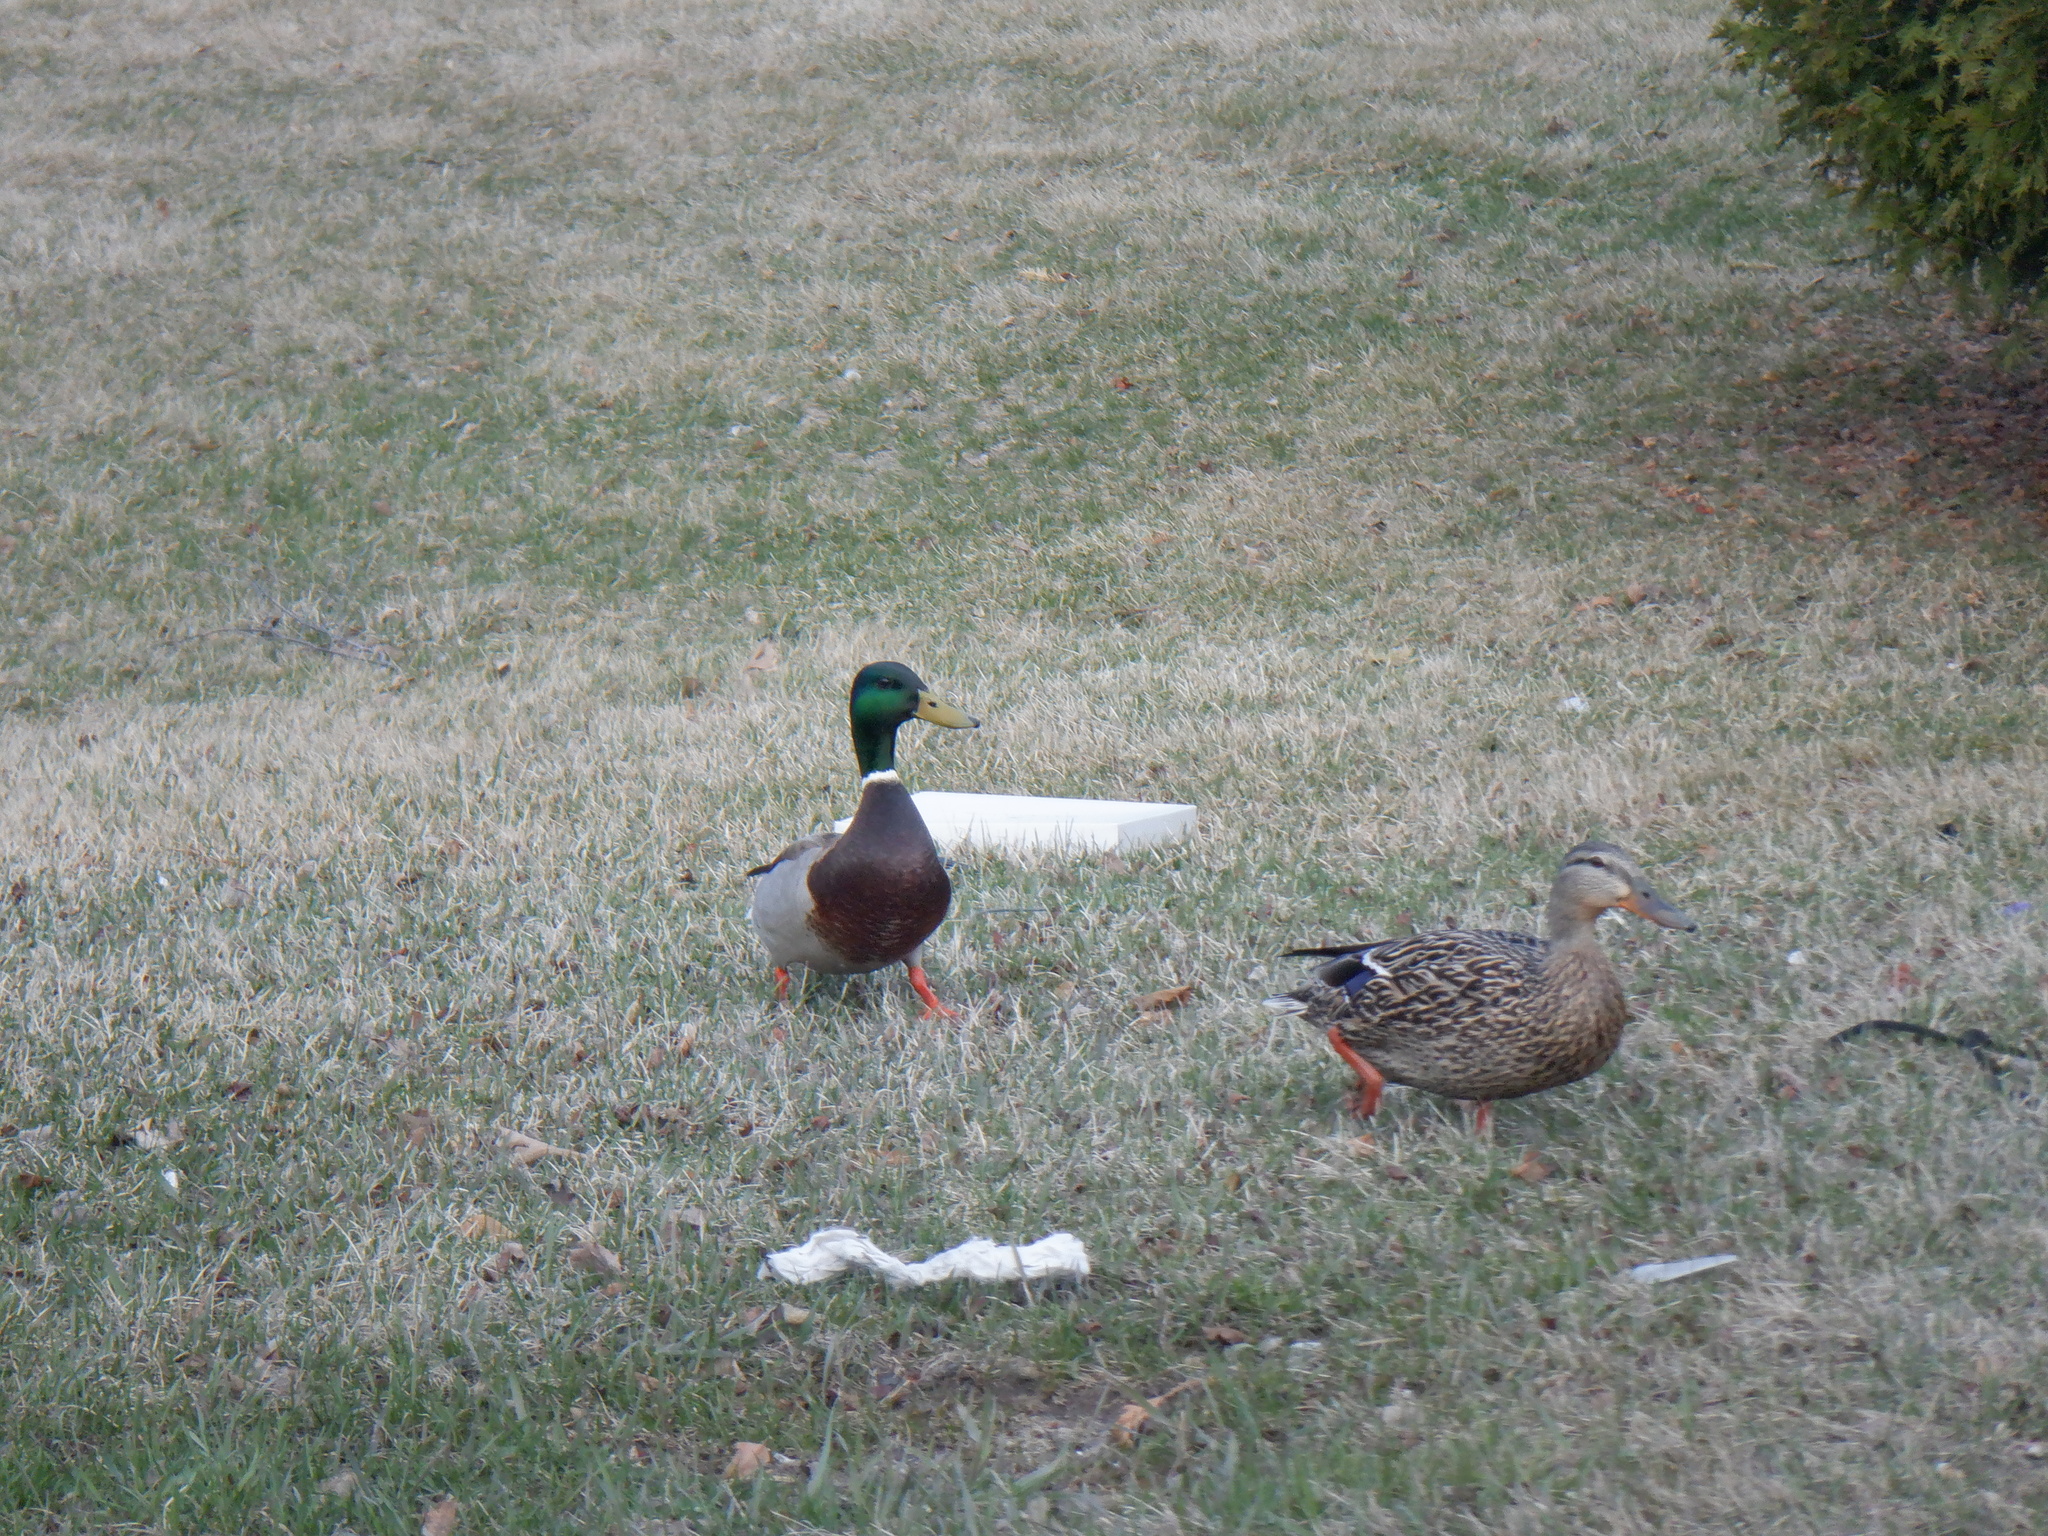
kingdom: Animalia
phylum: Chordata
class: Aves
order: Anseriformes
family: Anatidae
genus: Anas
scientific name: Anas platyrhynchos
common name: Mallard
